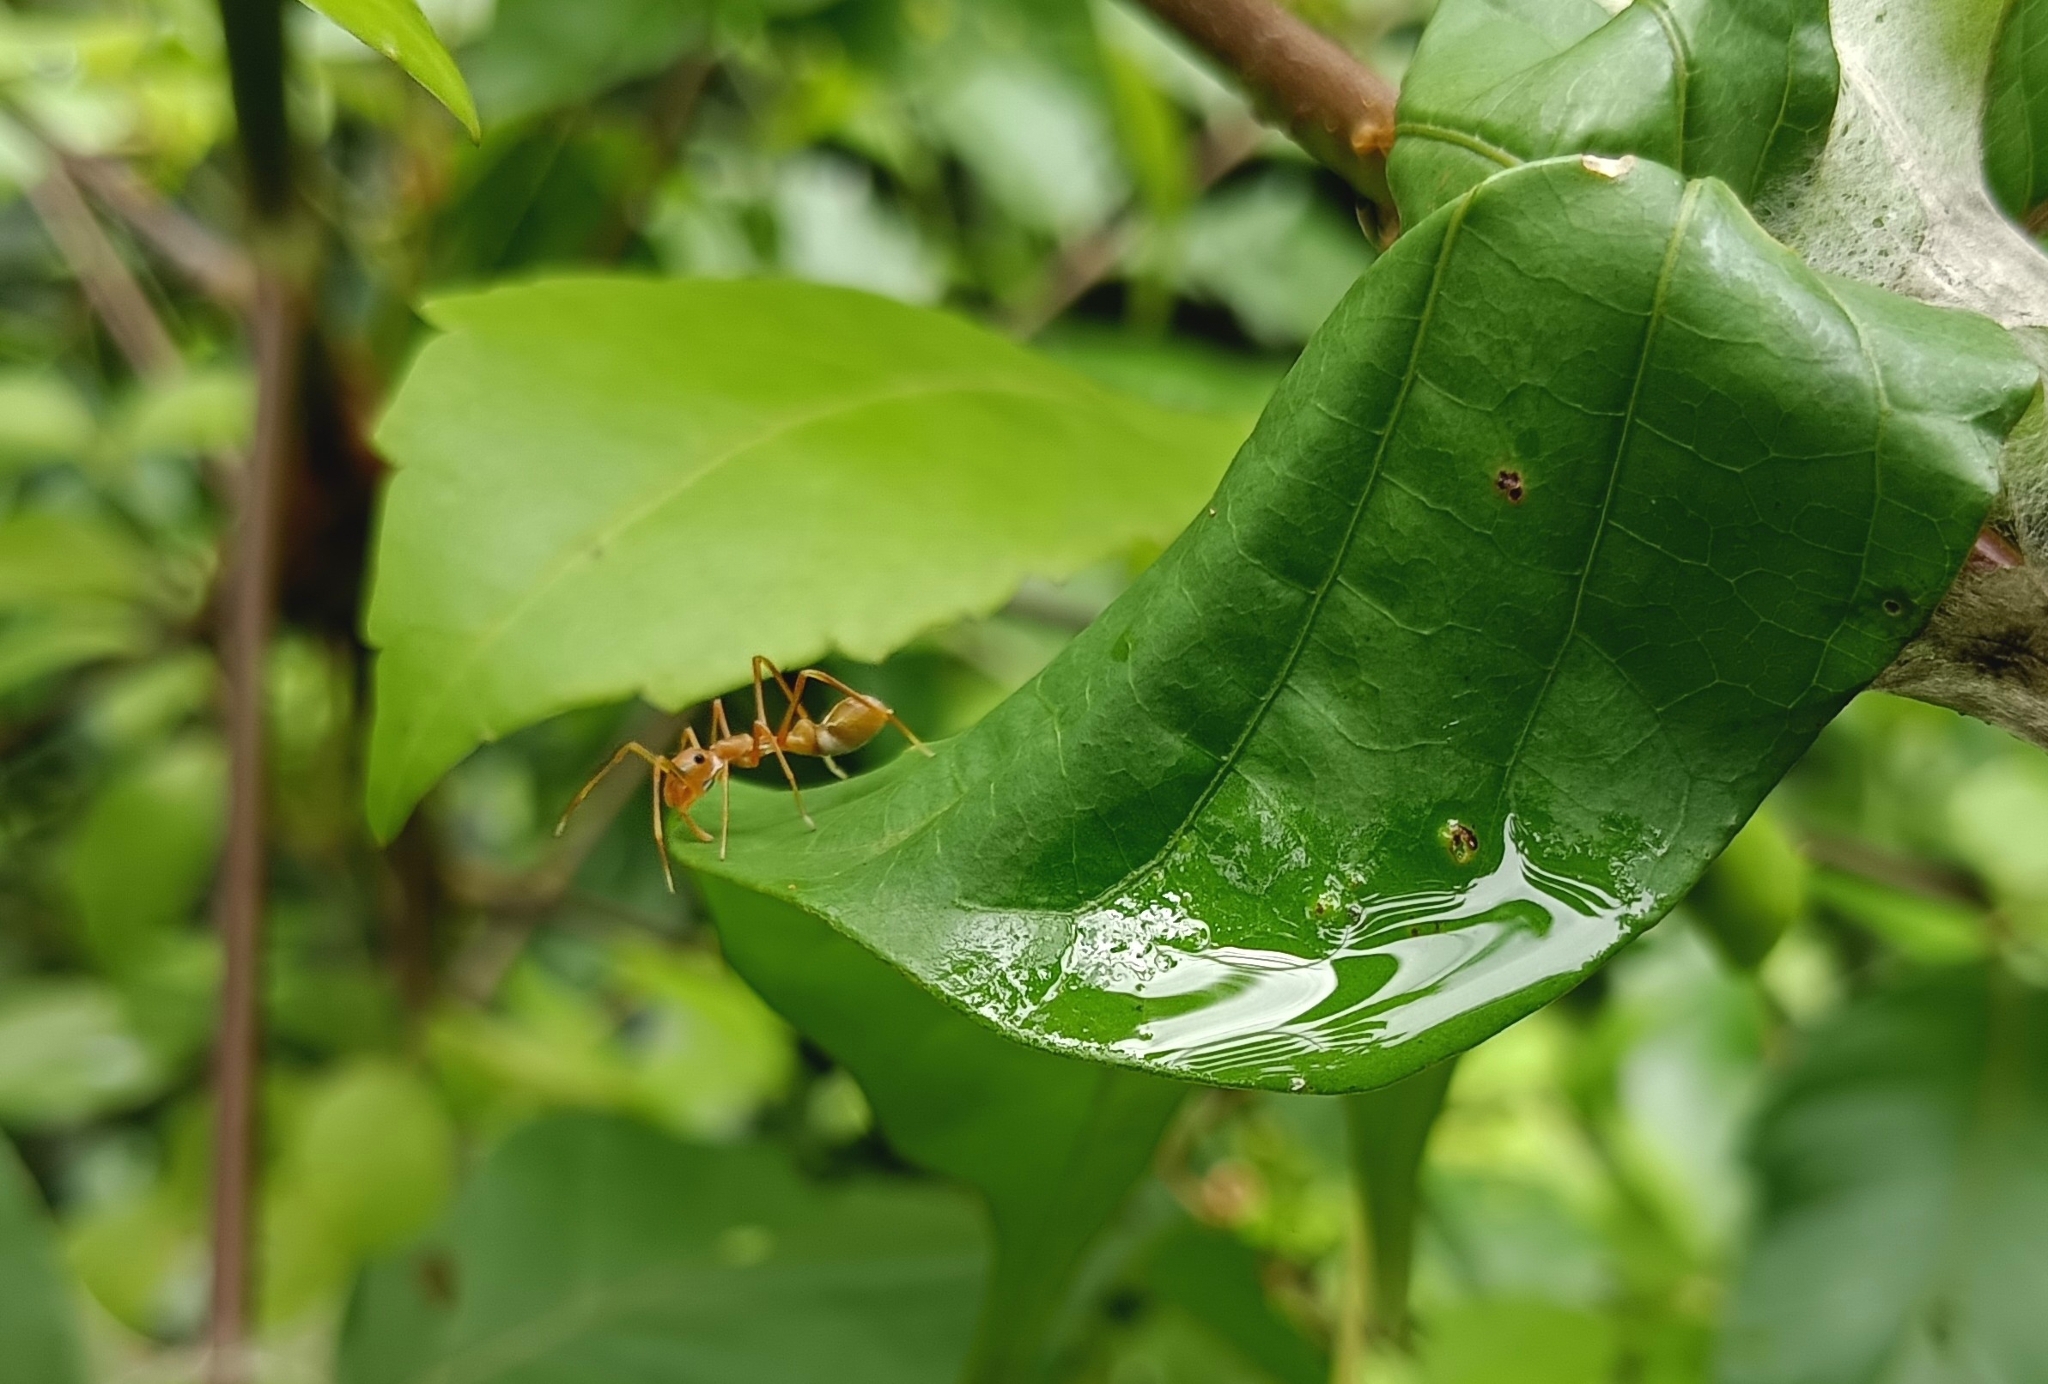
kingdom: Animalia
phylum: Arthropoda
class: Arachnida
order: Araneae
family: Salticidae
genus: Myrmaplata
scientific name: Myrmaplata plataleoides
